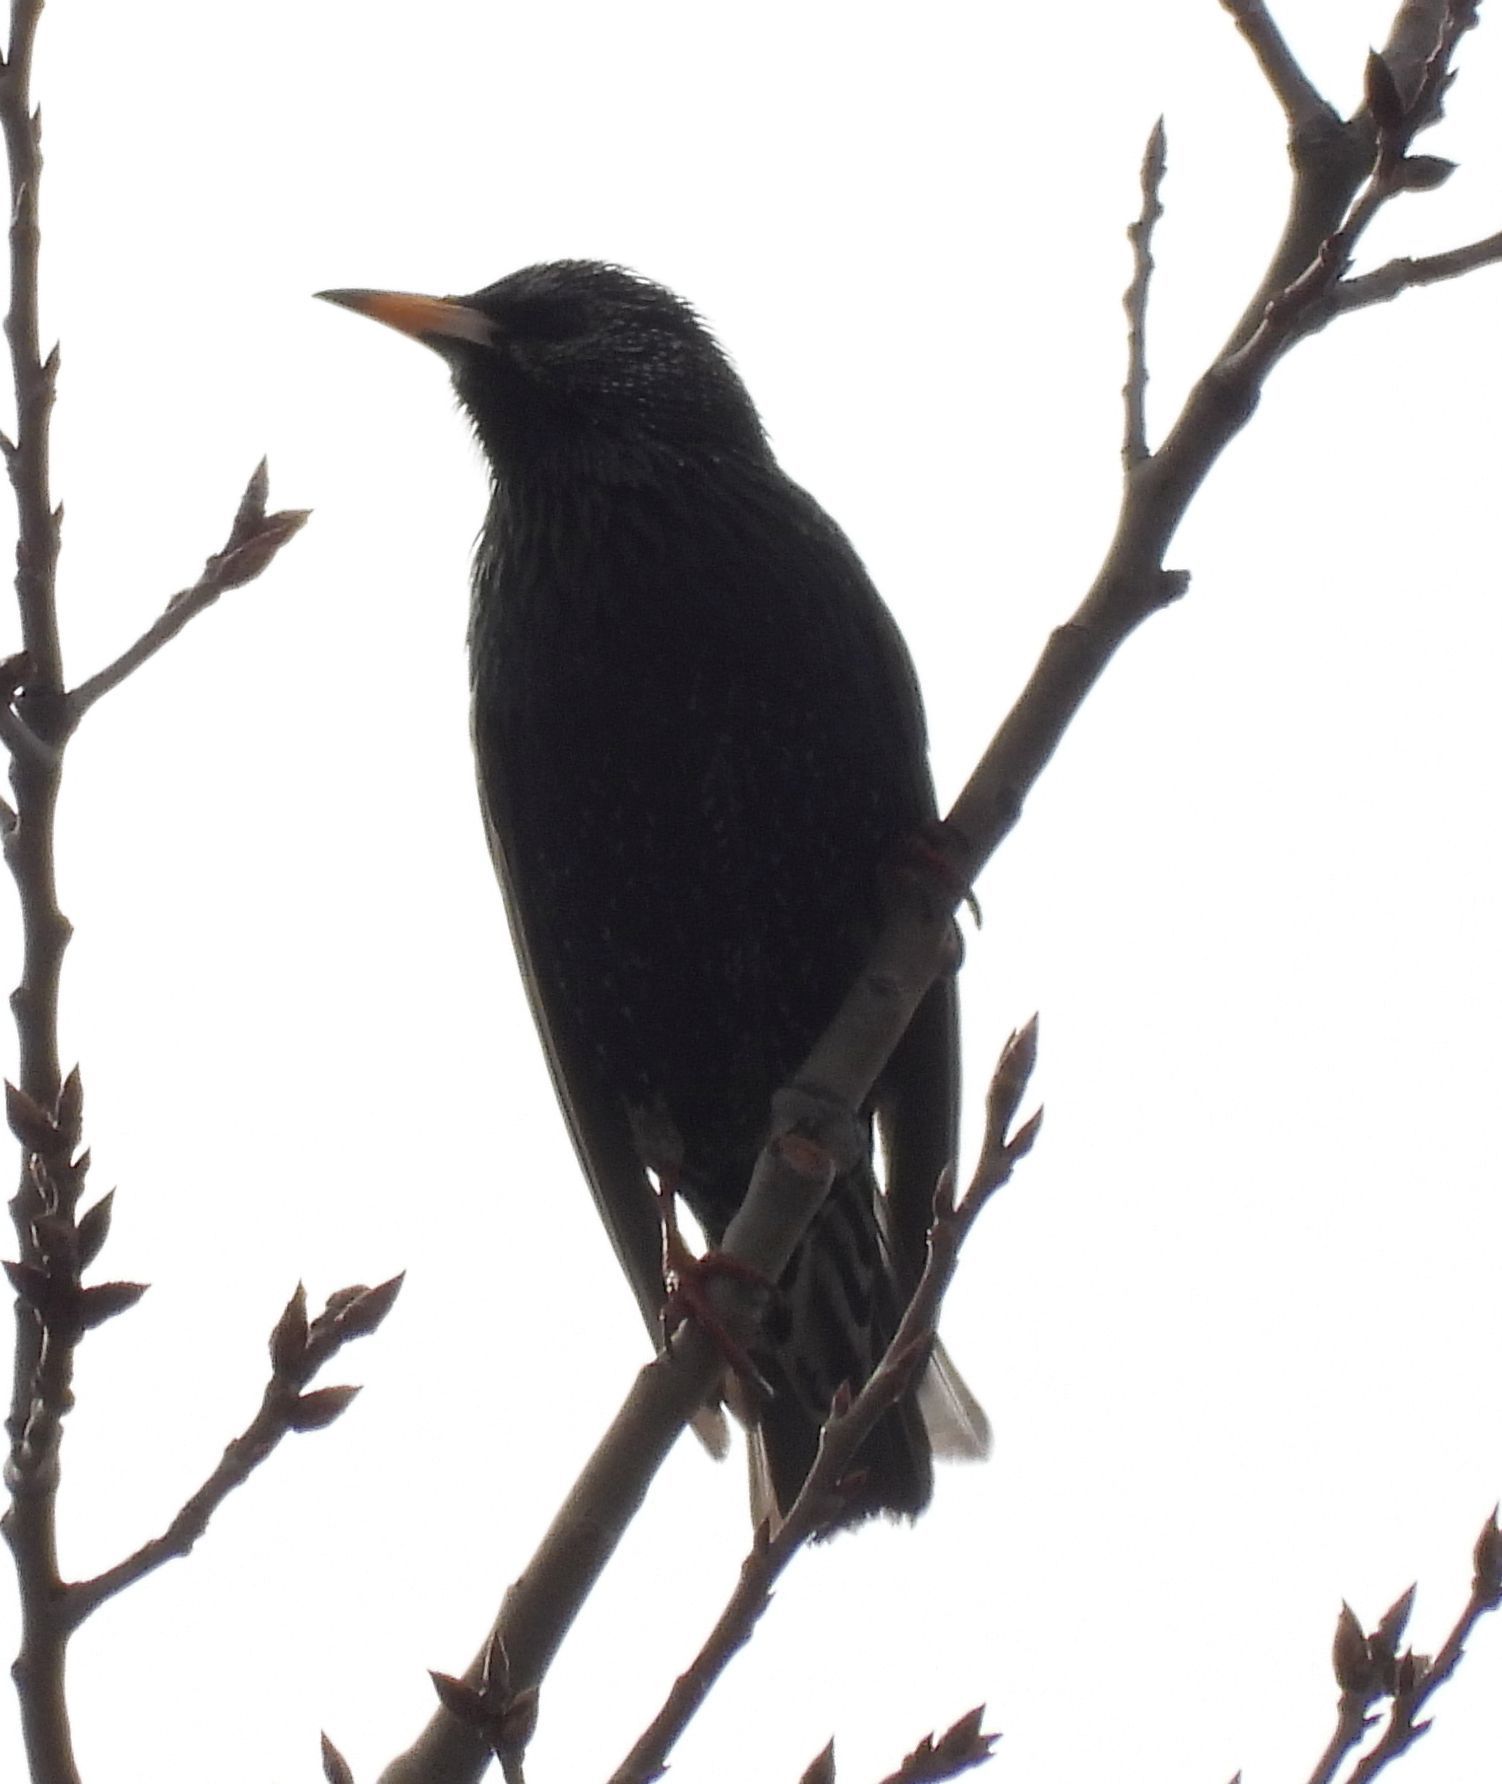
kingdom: Animalia
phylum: Chordata
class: Aves
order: Passeriformes
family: Sturnidae
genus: Sturnus
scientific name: Sturnus vulgaris
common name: Common starling
